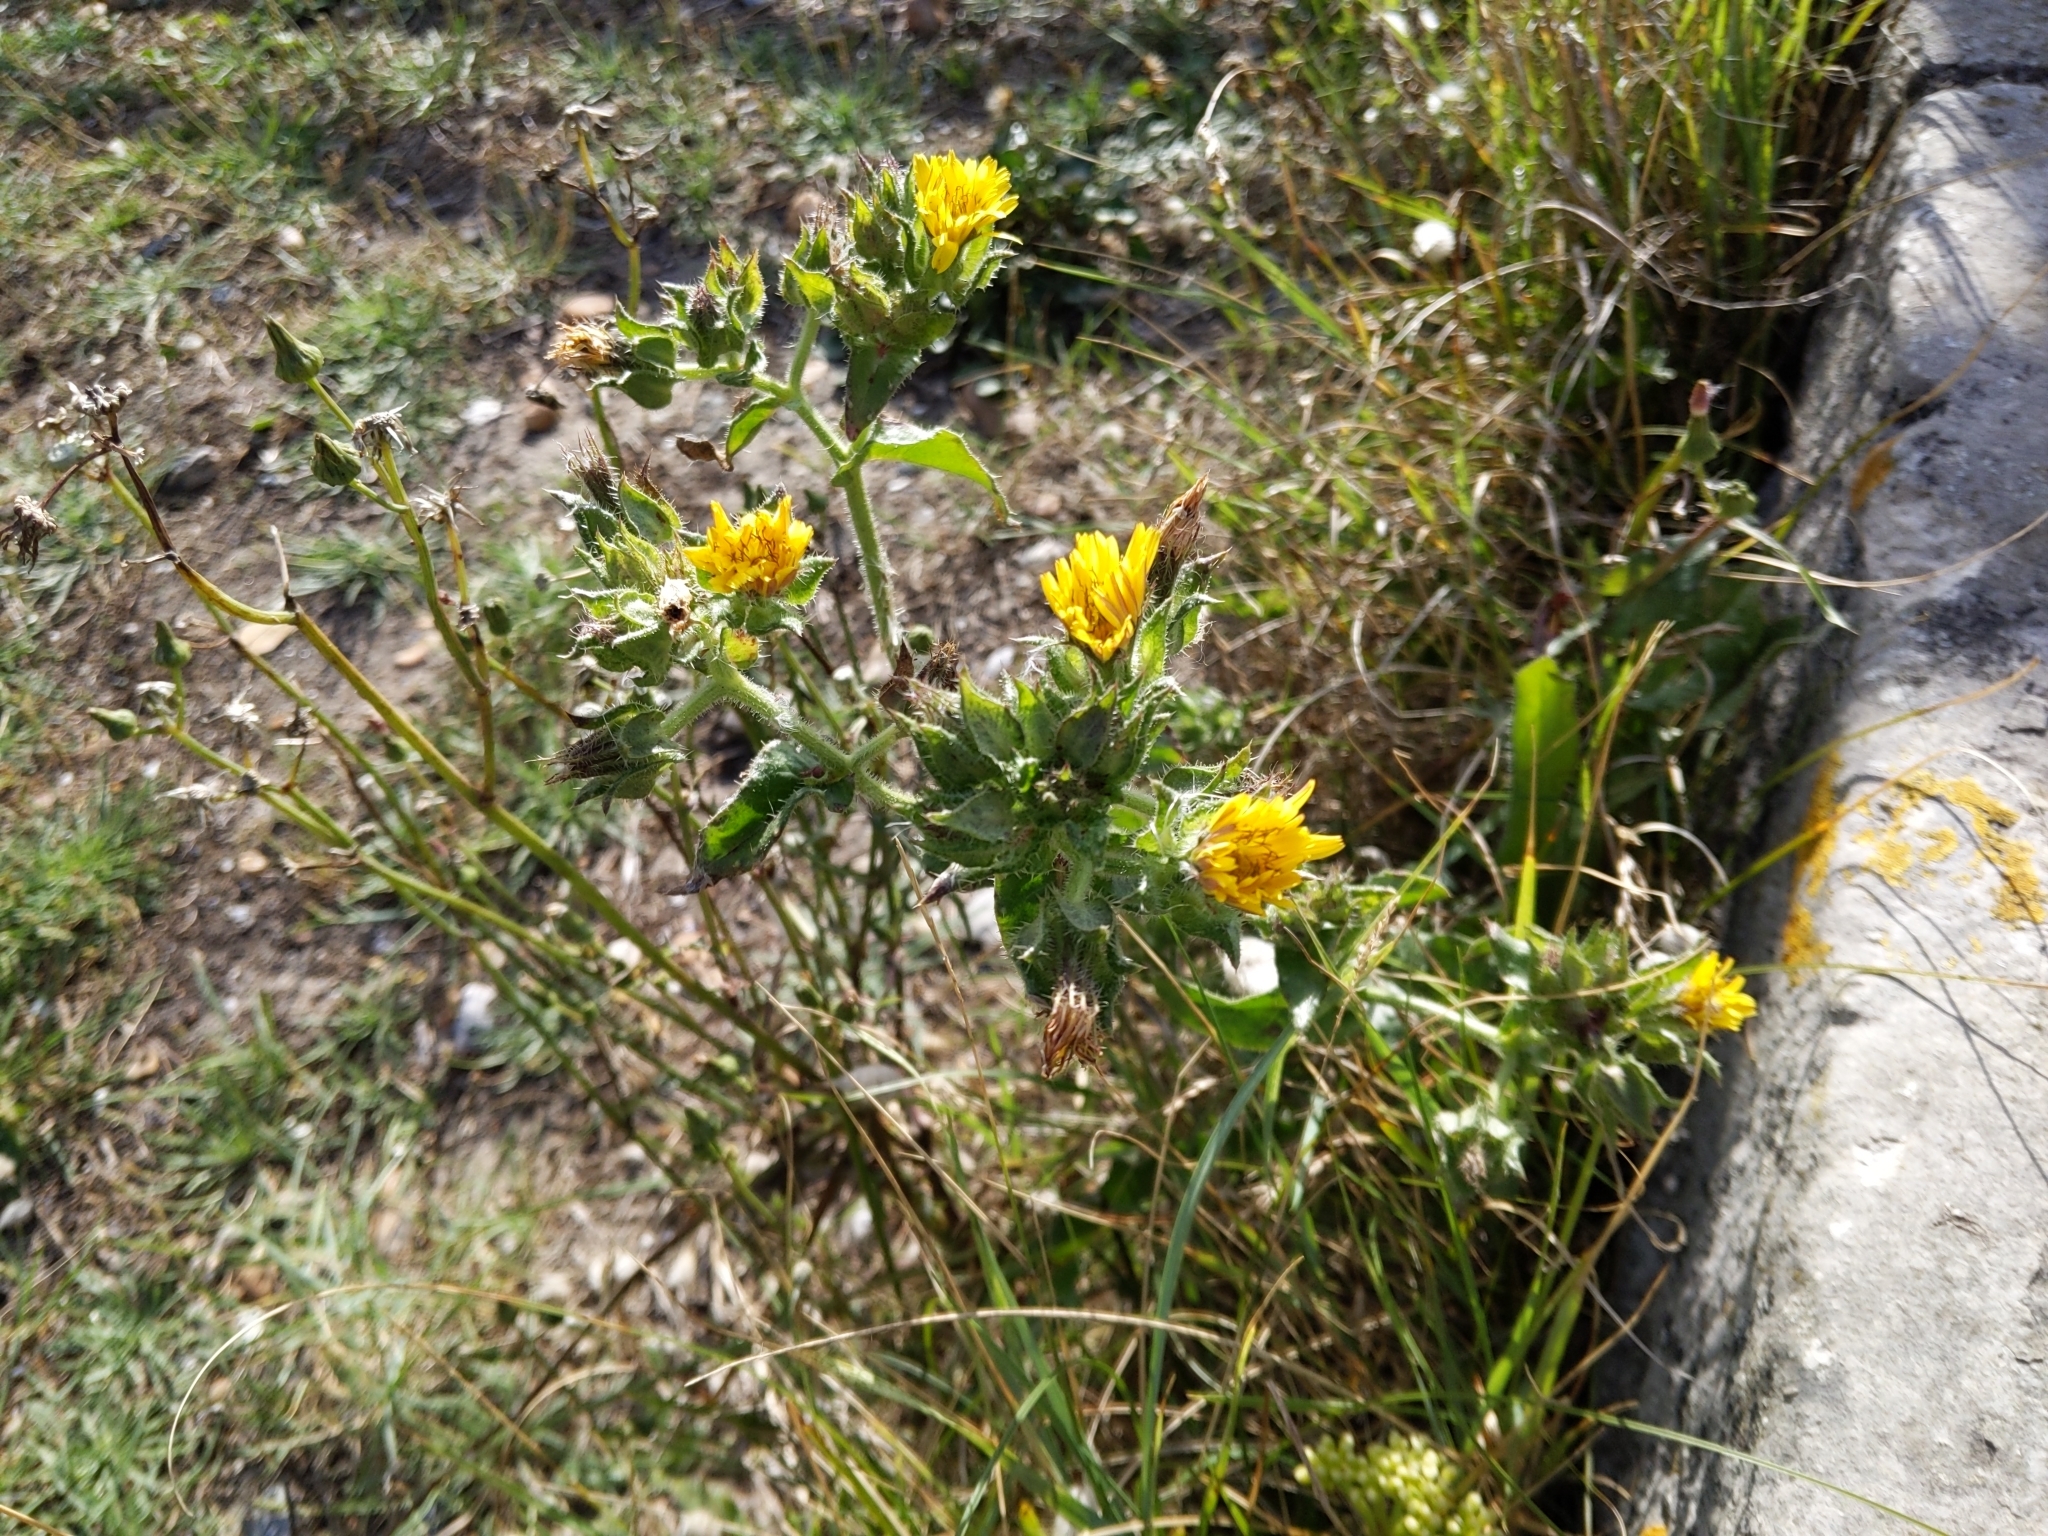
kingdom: Plantae
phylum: Tracheophyta
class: Magnoliopsida
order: Asterales
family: Asteraceae
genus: Helminthotheca
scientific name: Helminthotheca echioides
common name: Ox-tongue
